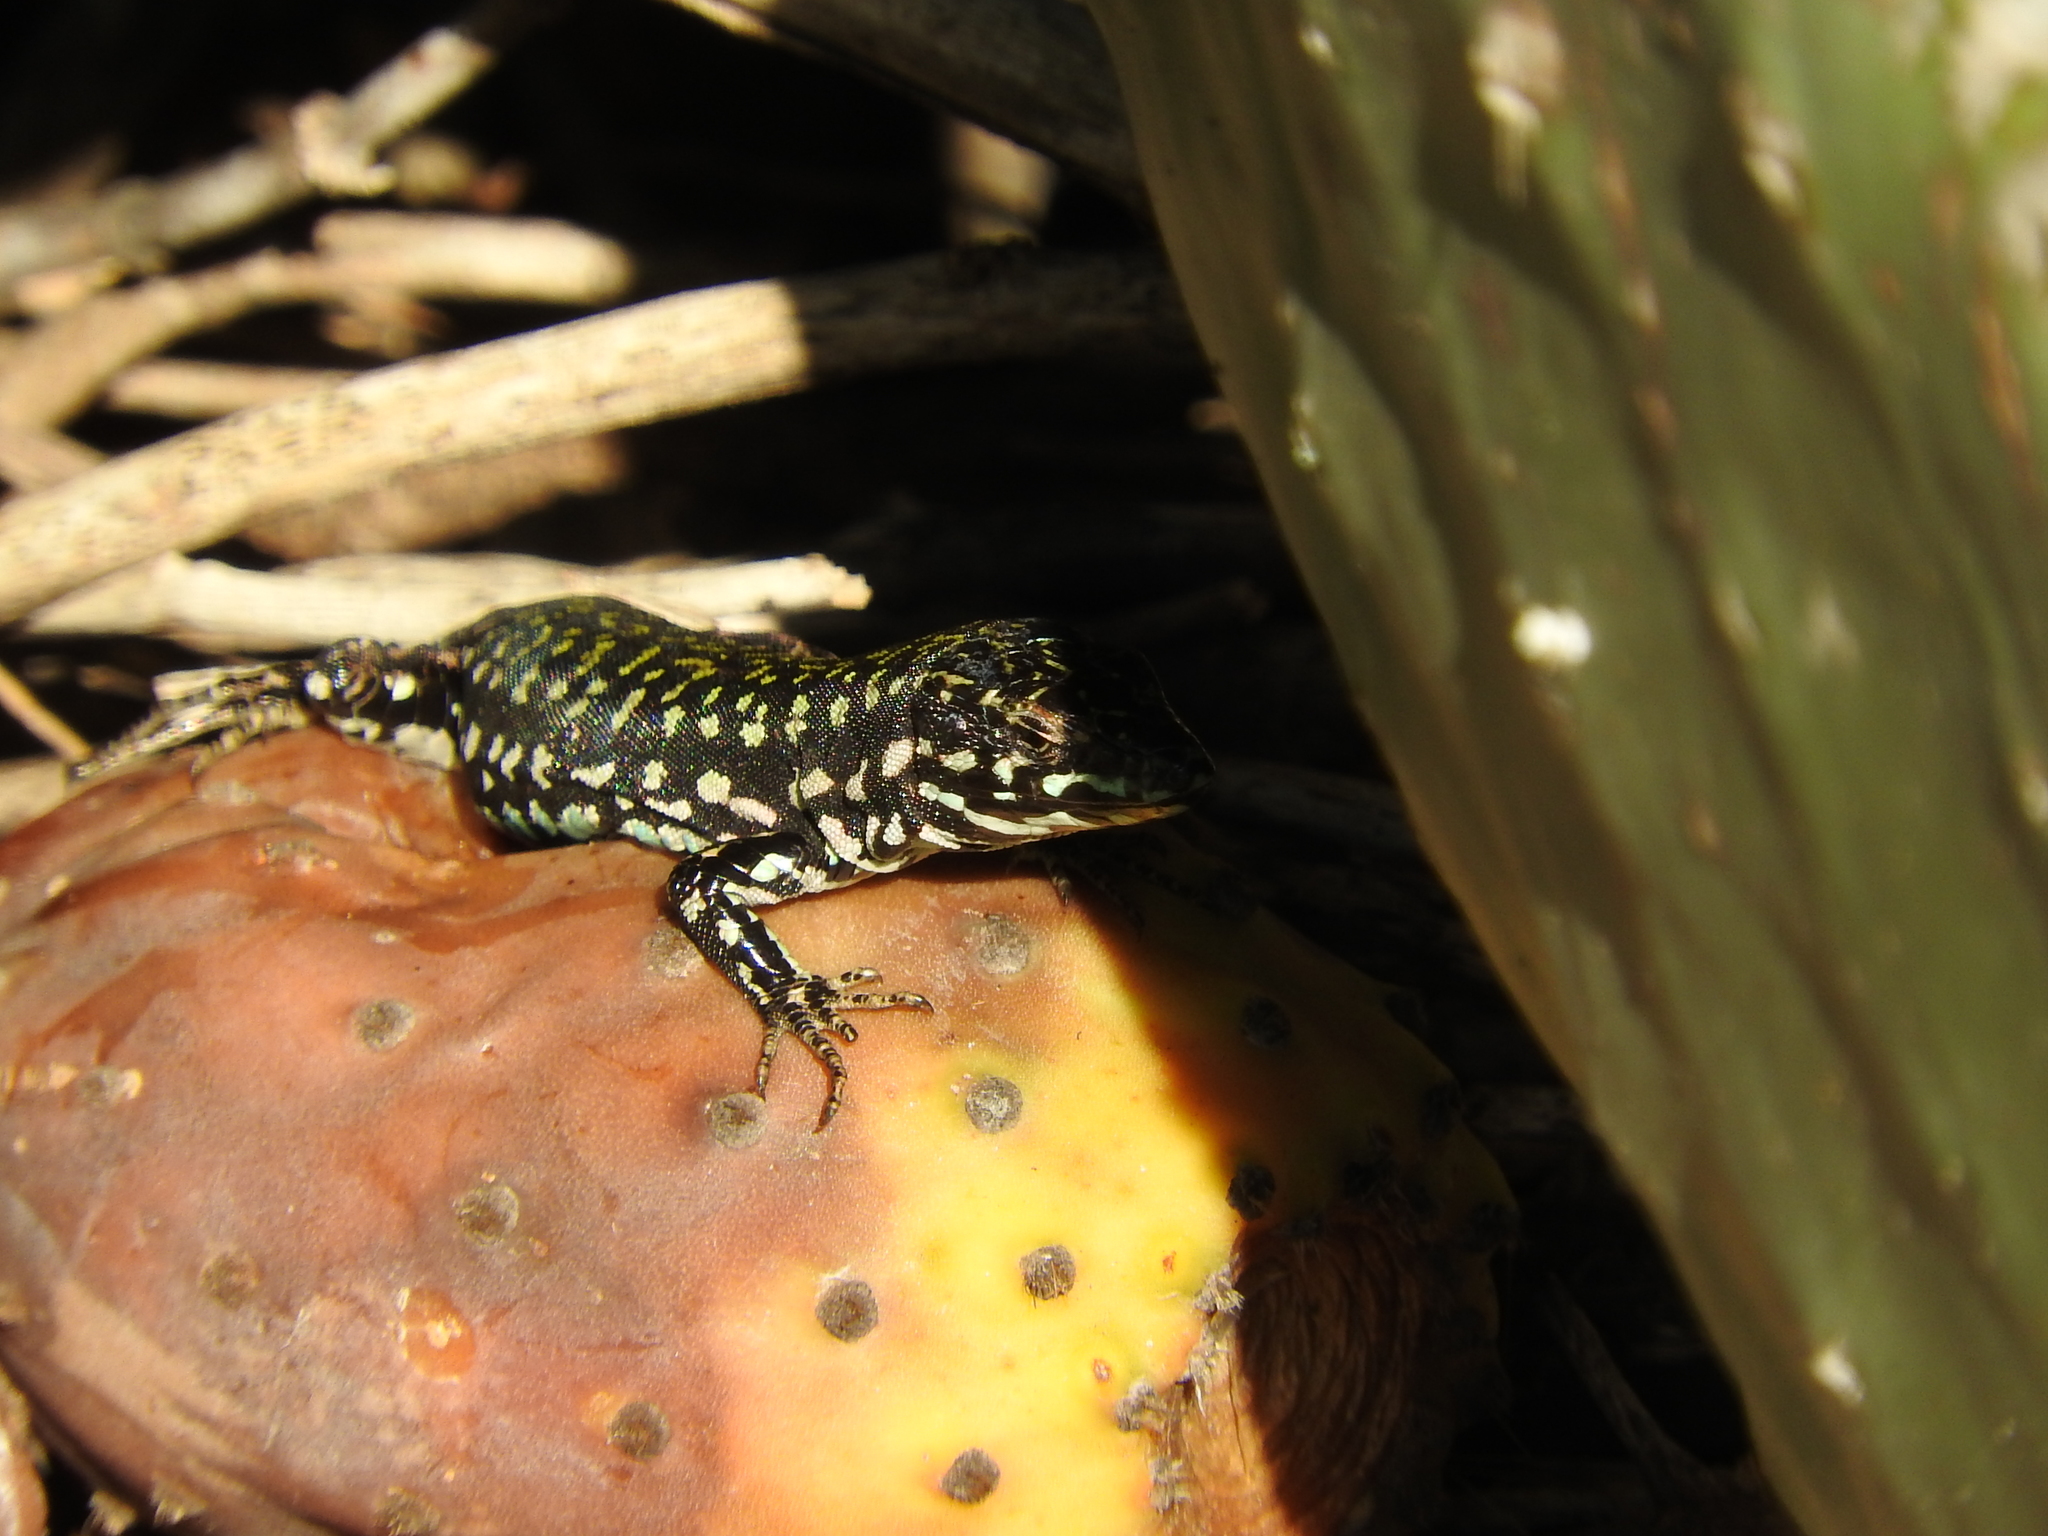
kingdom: Animalia
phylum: Chordata
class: Squamata
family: Lacertidae
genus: Podarcis
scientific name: Podarcis filfolensis
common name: Maltese wall lizard
